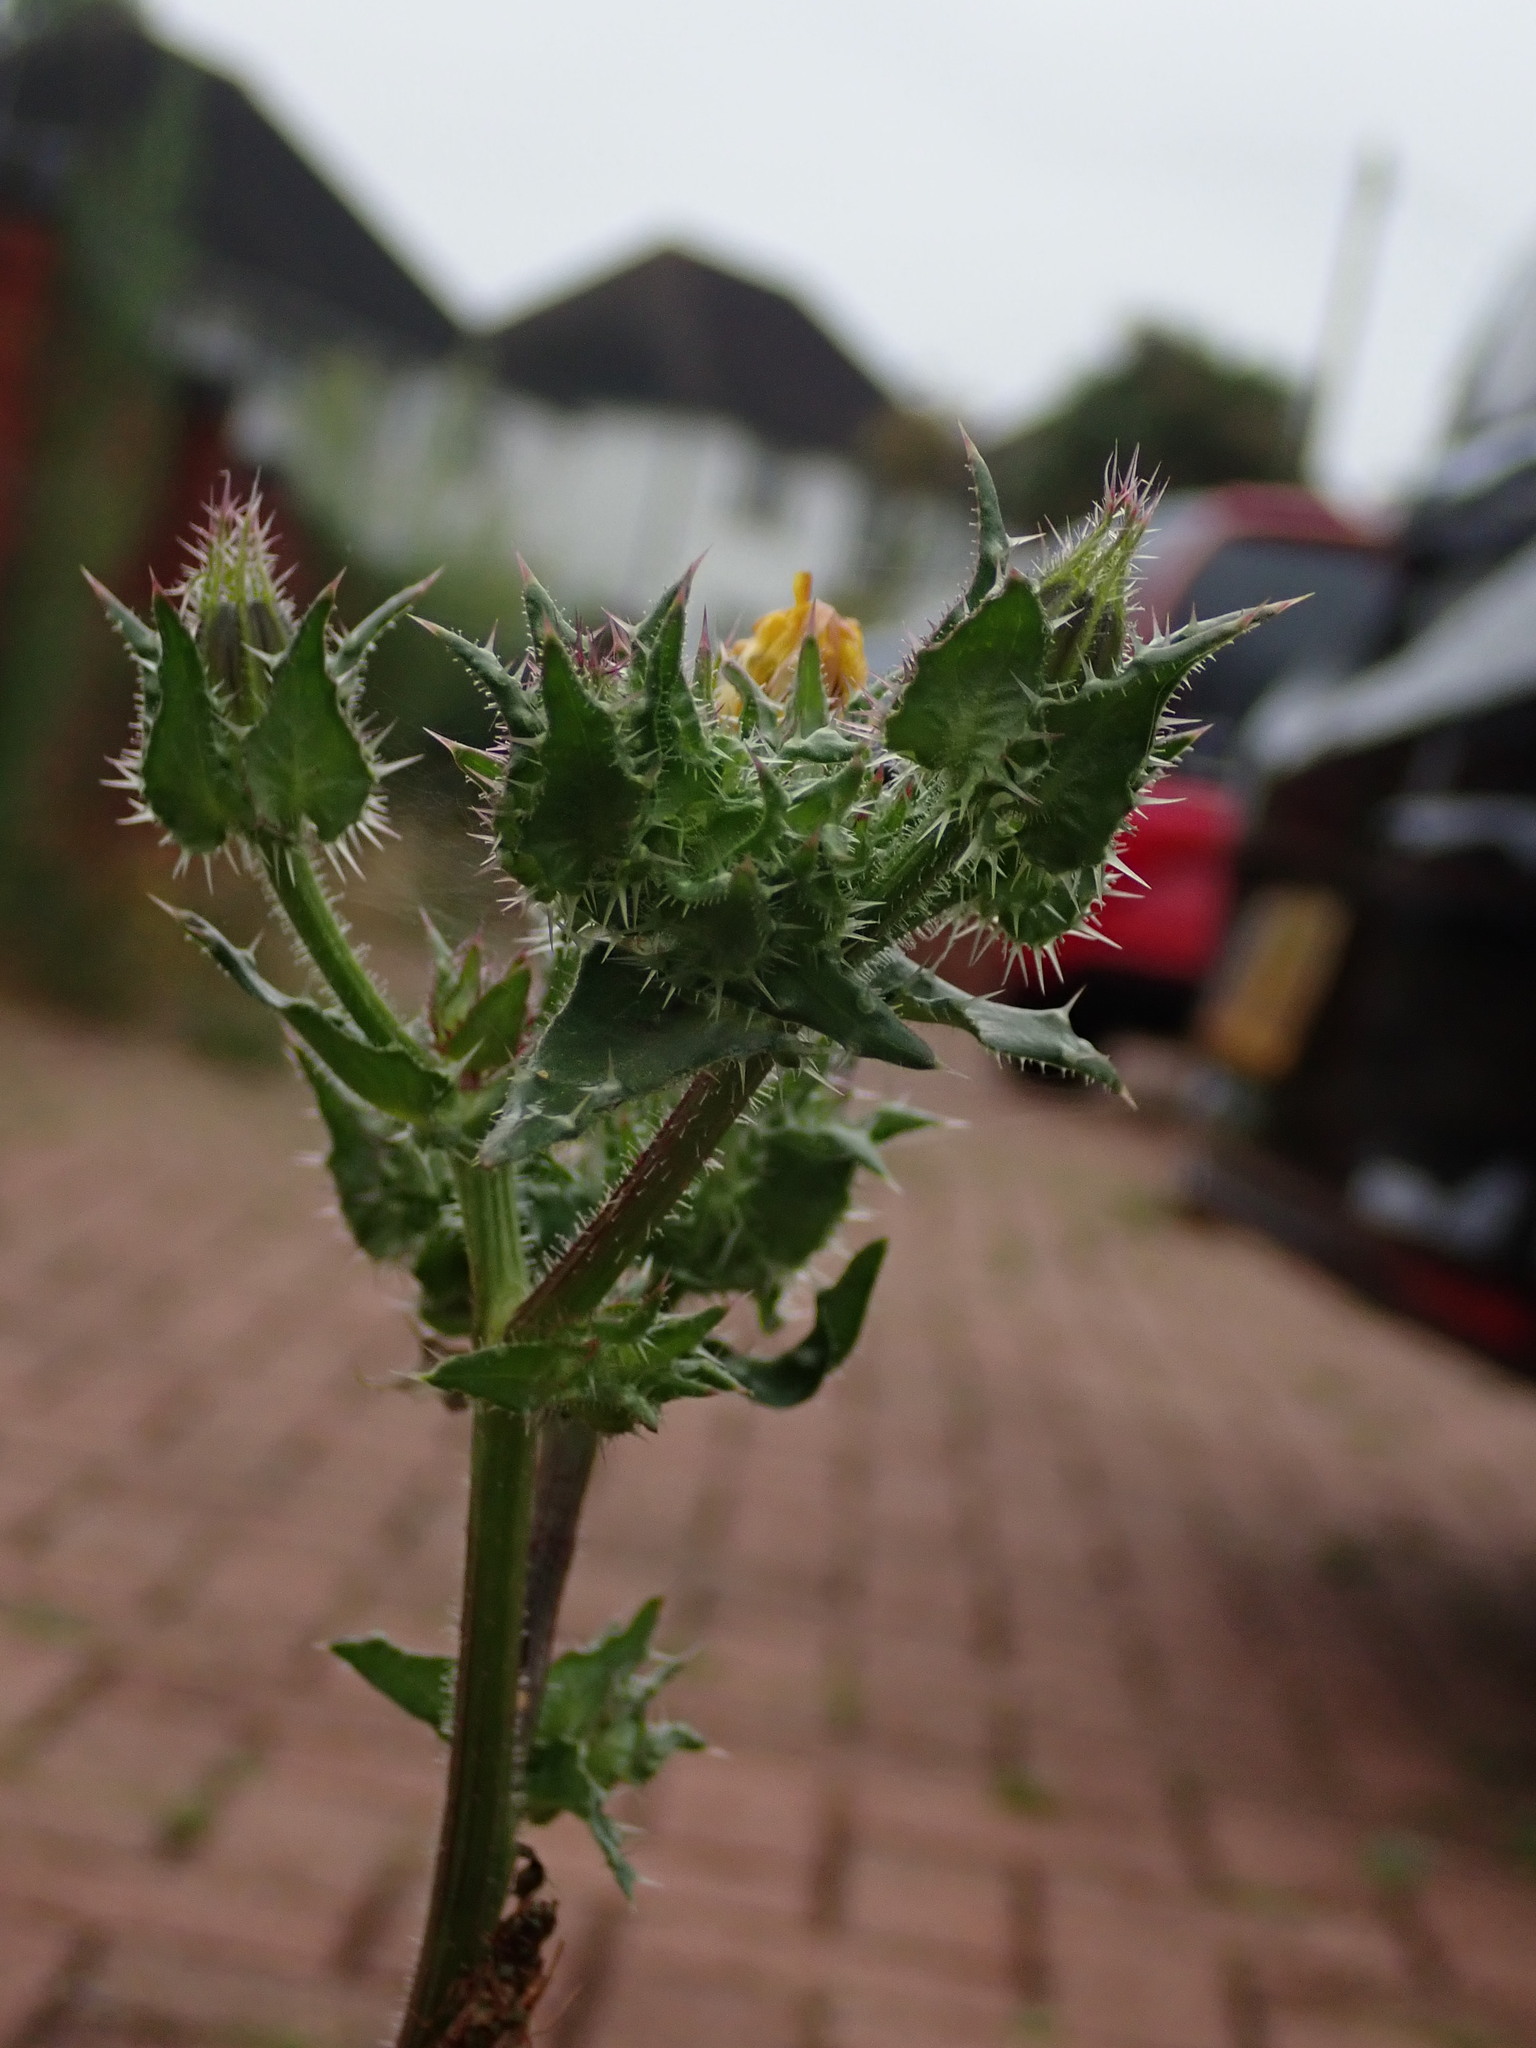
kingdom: Plantae
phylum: Tracheophyta
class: Magnoliopsida
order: Asterales
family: Asteraceae
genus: Helminthotheca
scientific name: Helminthotheca echioides
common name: Ox-tongue
